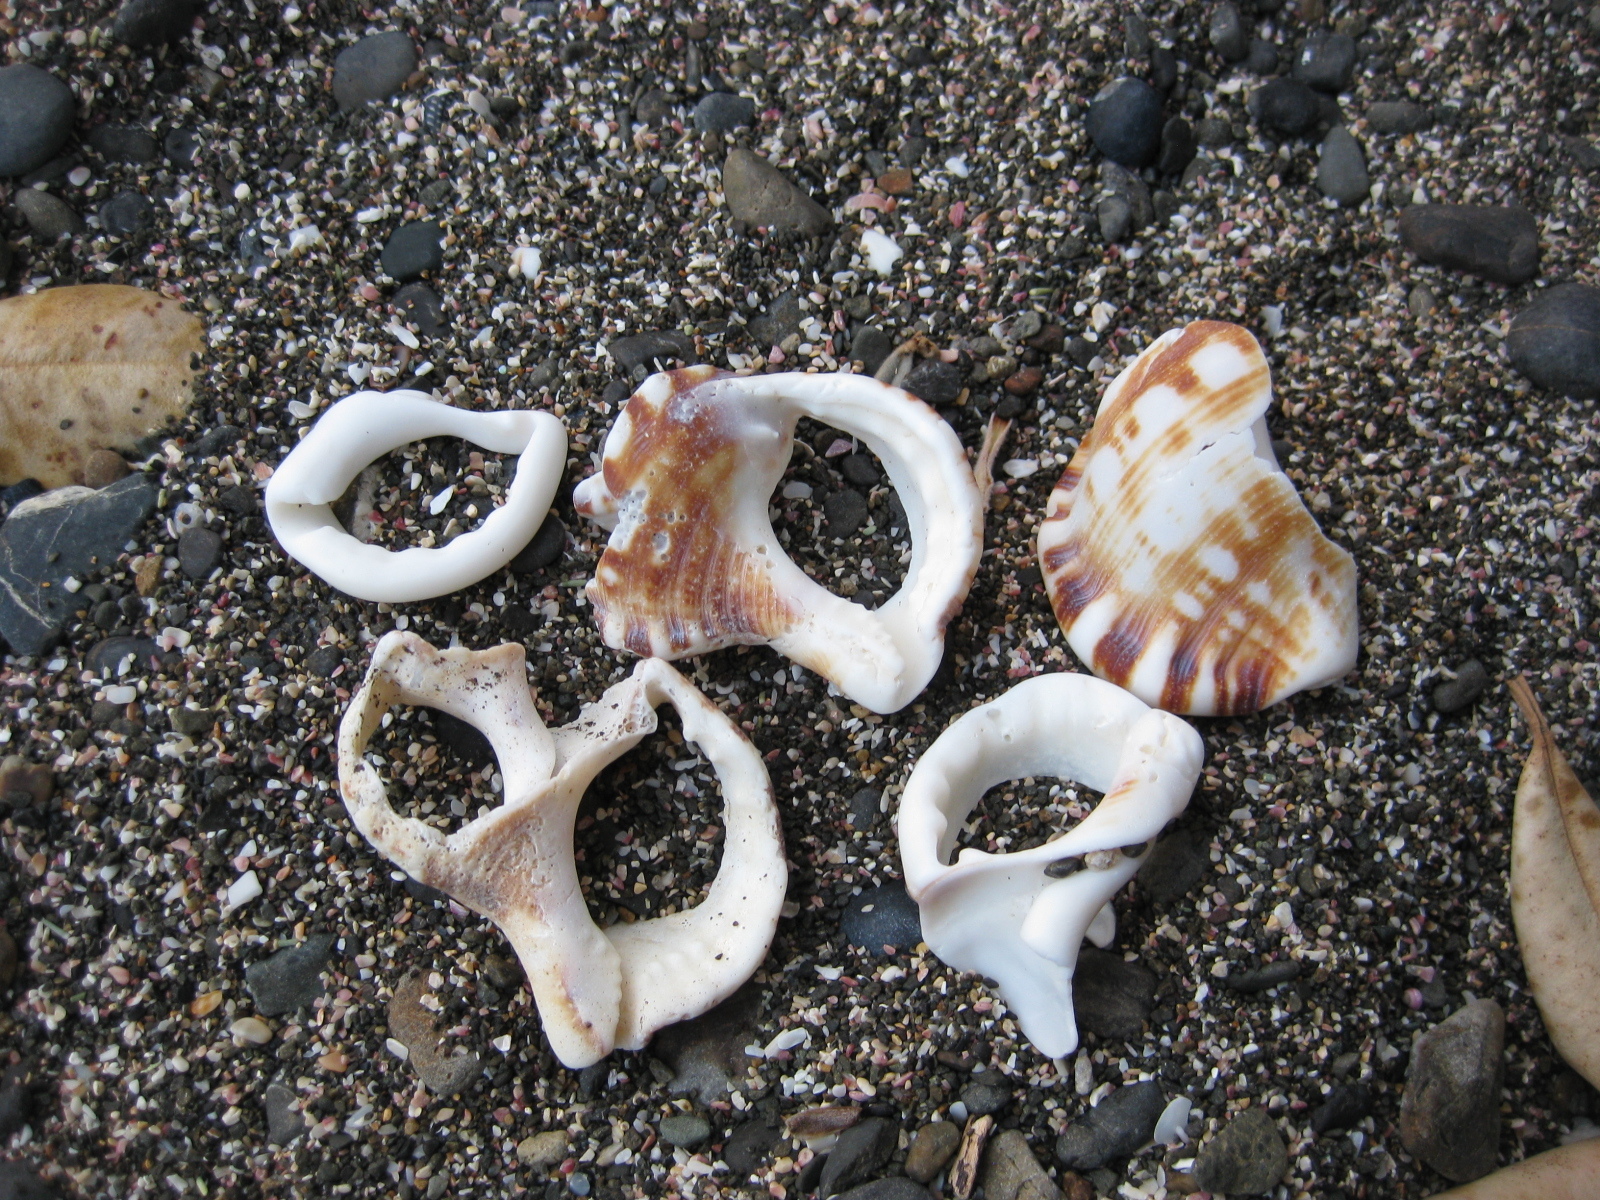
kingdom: Animalia
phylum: Mollusca
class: Gastropoda
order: Littorinimorpha
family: Ranellidae
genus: Ranella
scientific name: Ranella australasia
